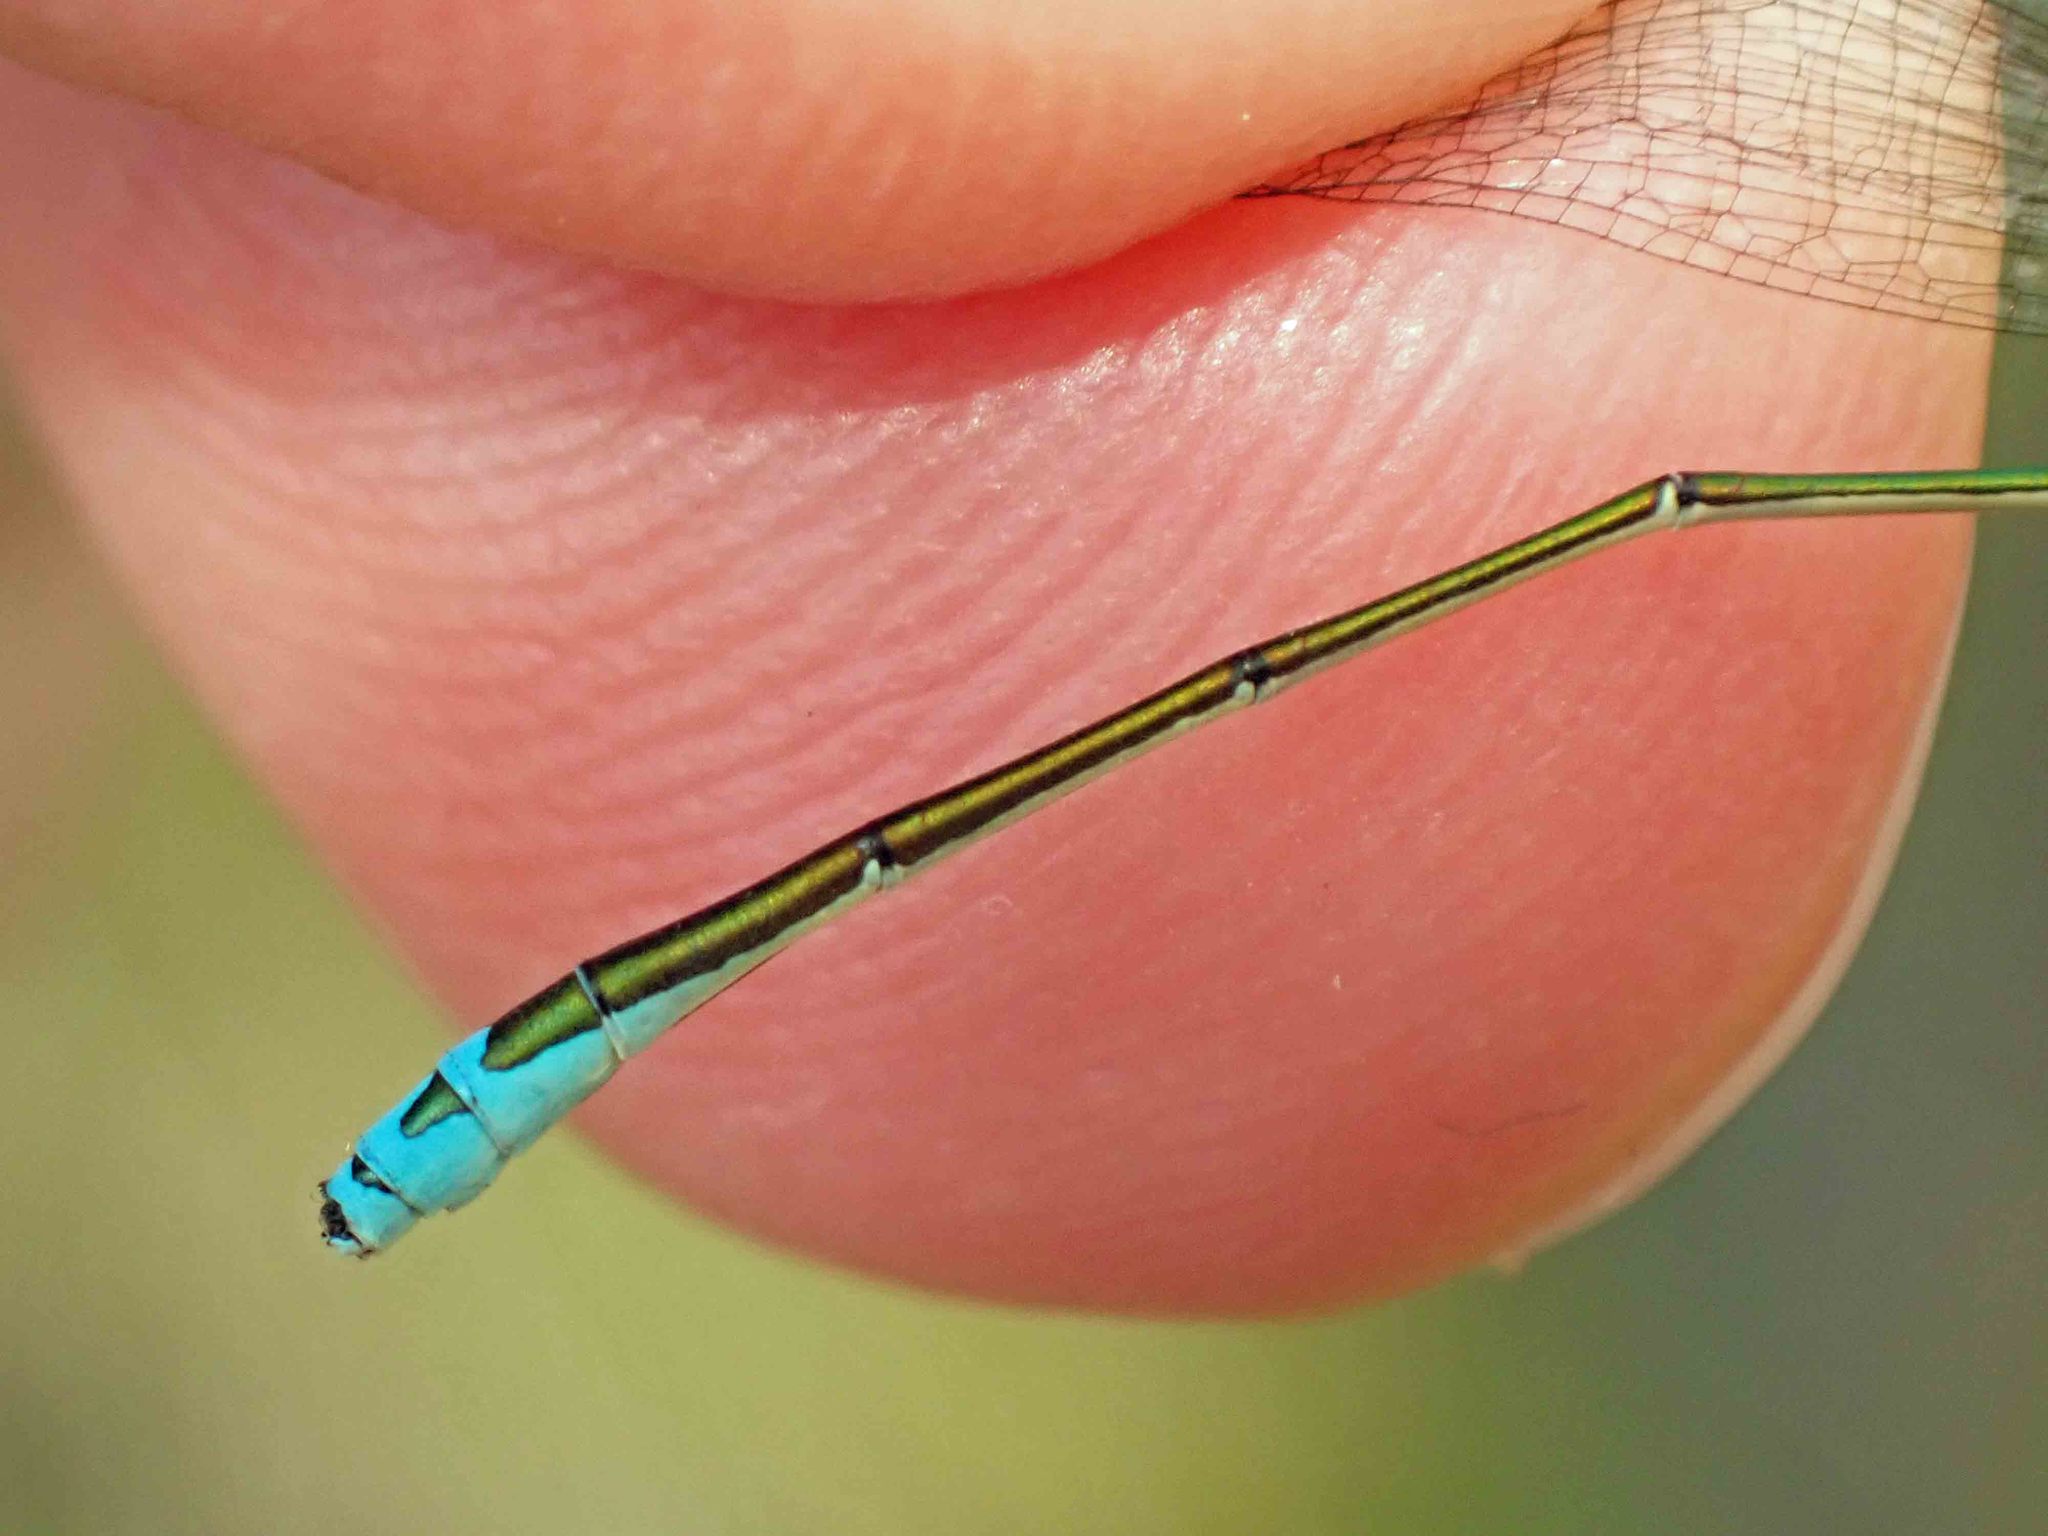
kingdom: Animalia
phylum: Arthropoda
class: Insecta
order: Odonata
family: Coenagrionidae
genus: Nehalennia
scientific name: Nehalennia irene
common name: Sedge sprite
